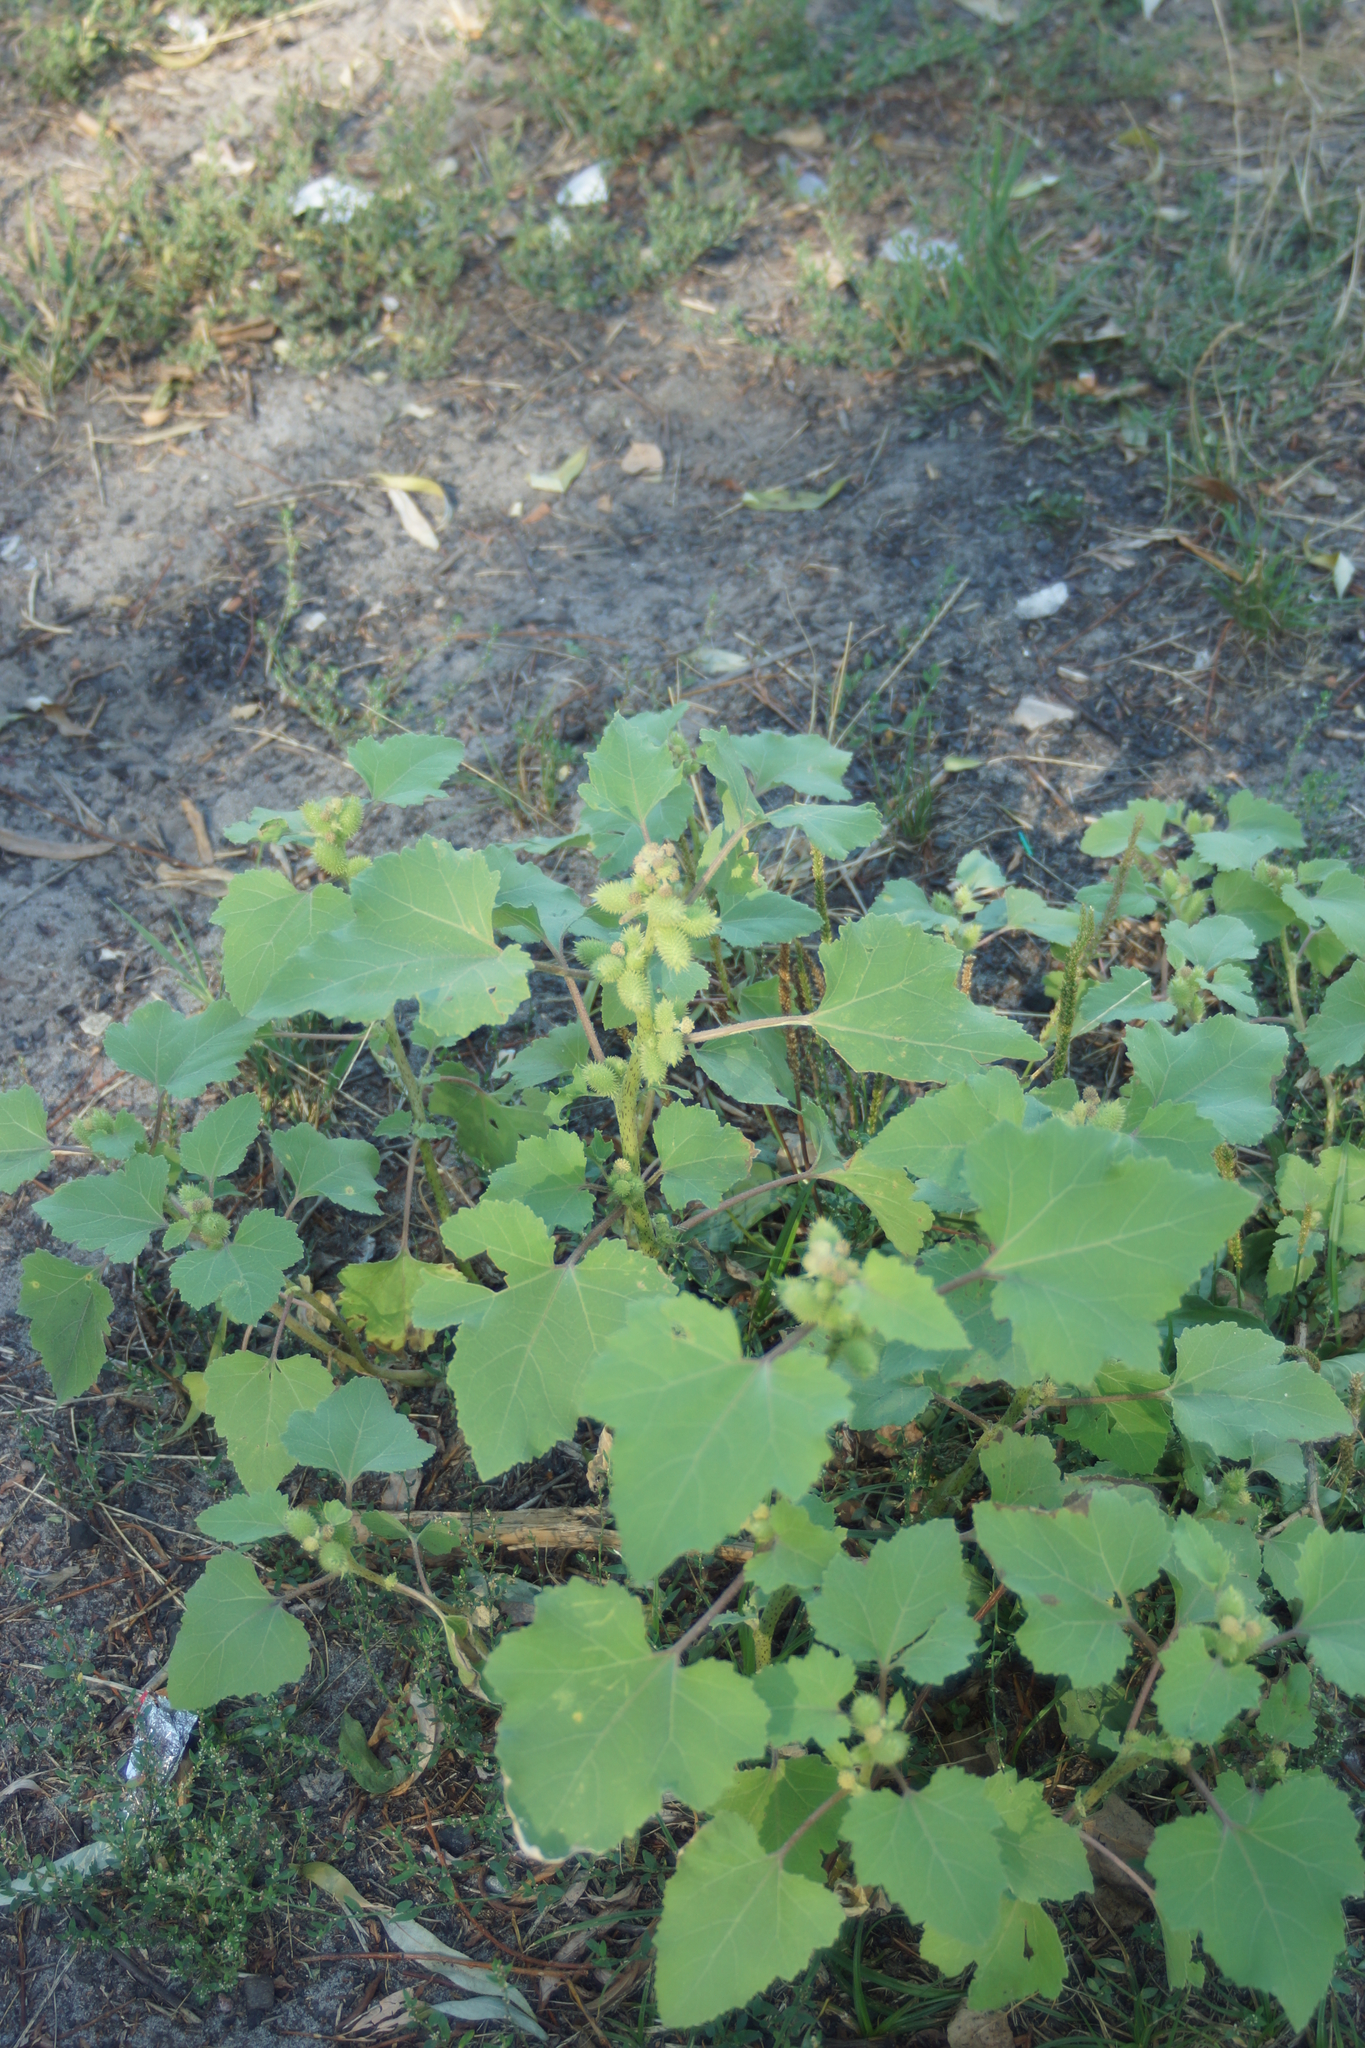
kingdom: Plantae
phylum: Tracheophyta
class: Magnoliopsida
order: Asterales
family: Asteraceae
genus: Xanthium
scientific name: Xanthium orientale
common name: Californian burr
